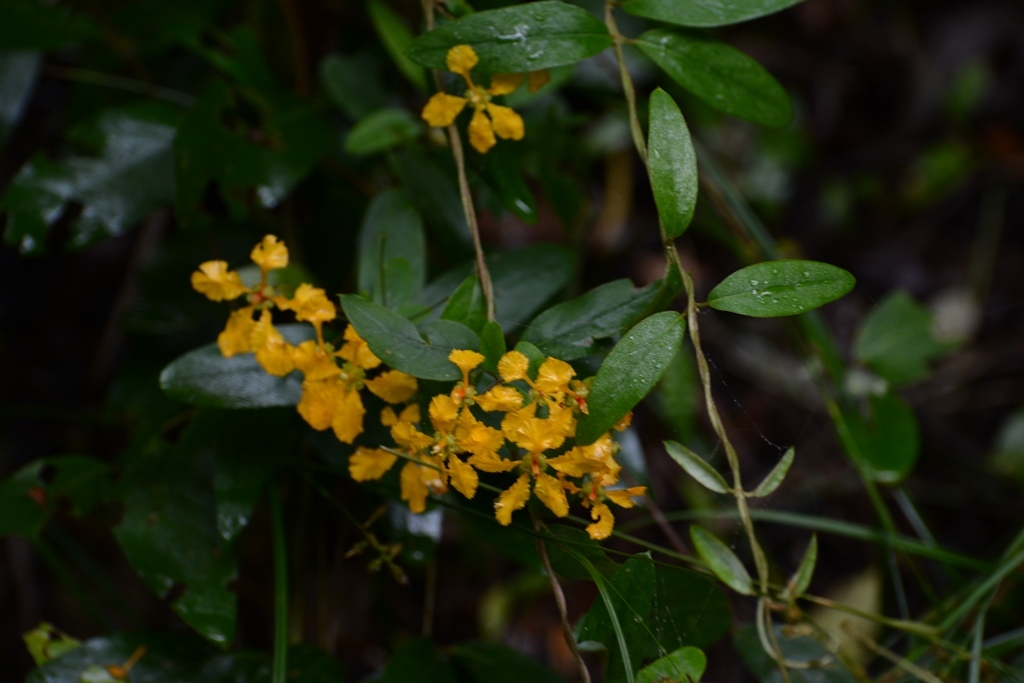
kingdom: Plantae
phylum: Tracheophyta
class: Magnoliopsida
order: Malpighiales
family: Malpighiaceae
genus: Gaudichaudia
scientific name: Gaudichaudia cynanchoides
